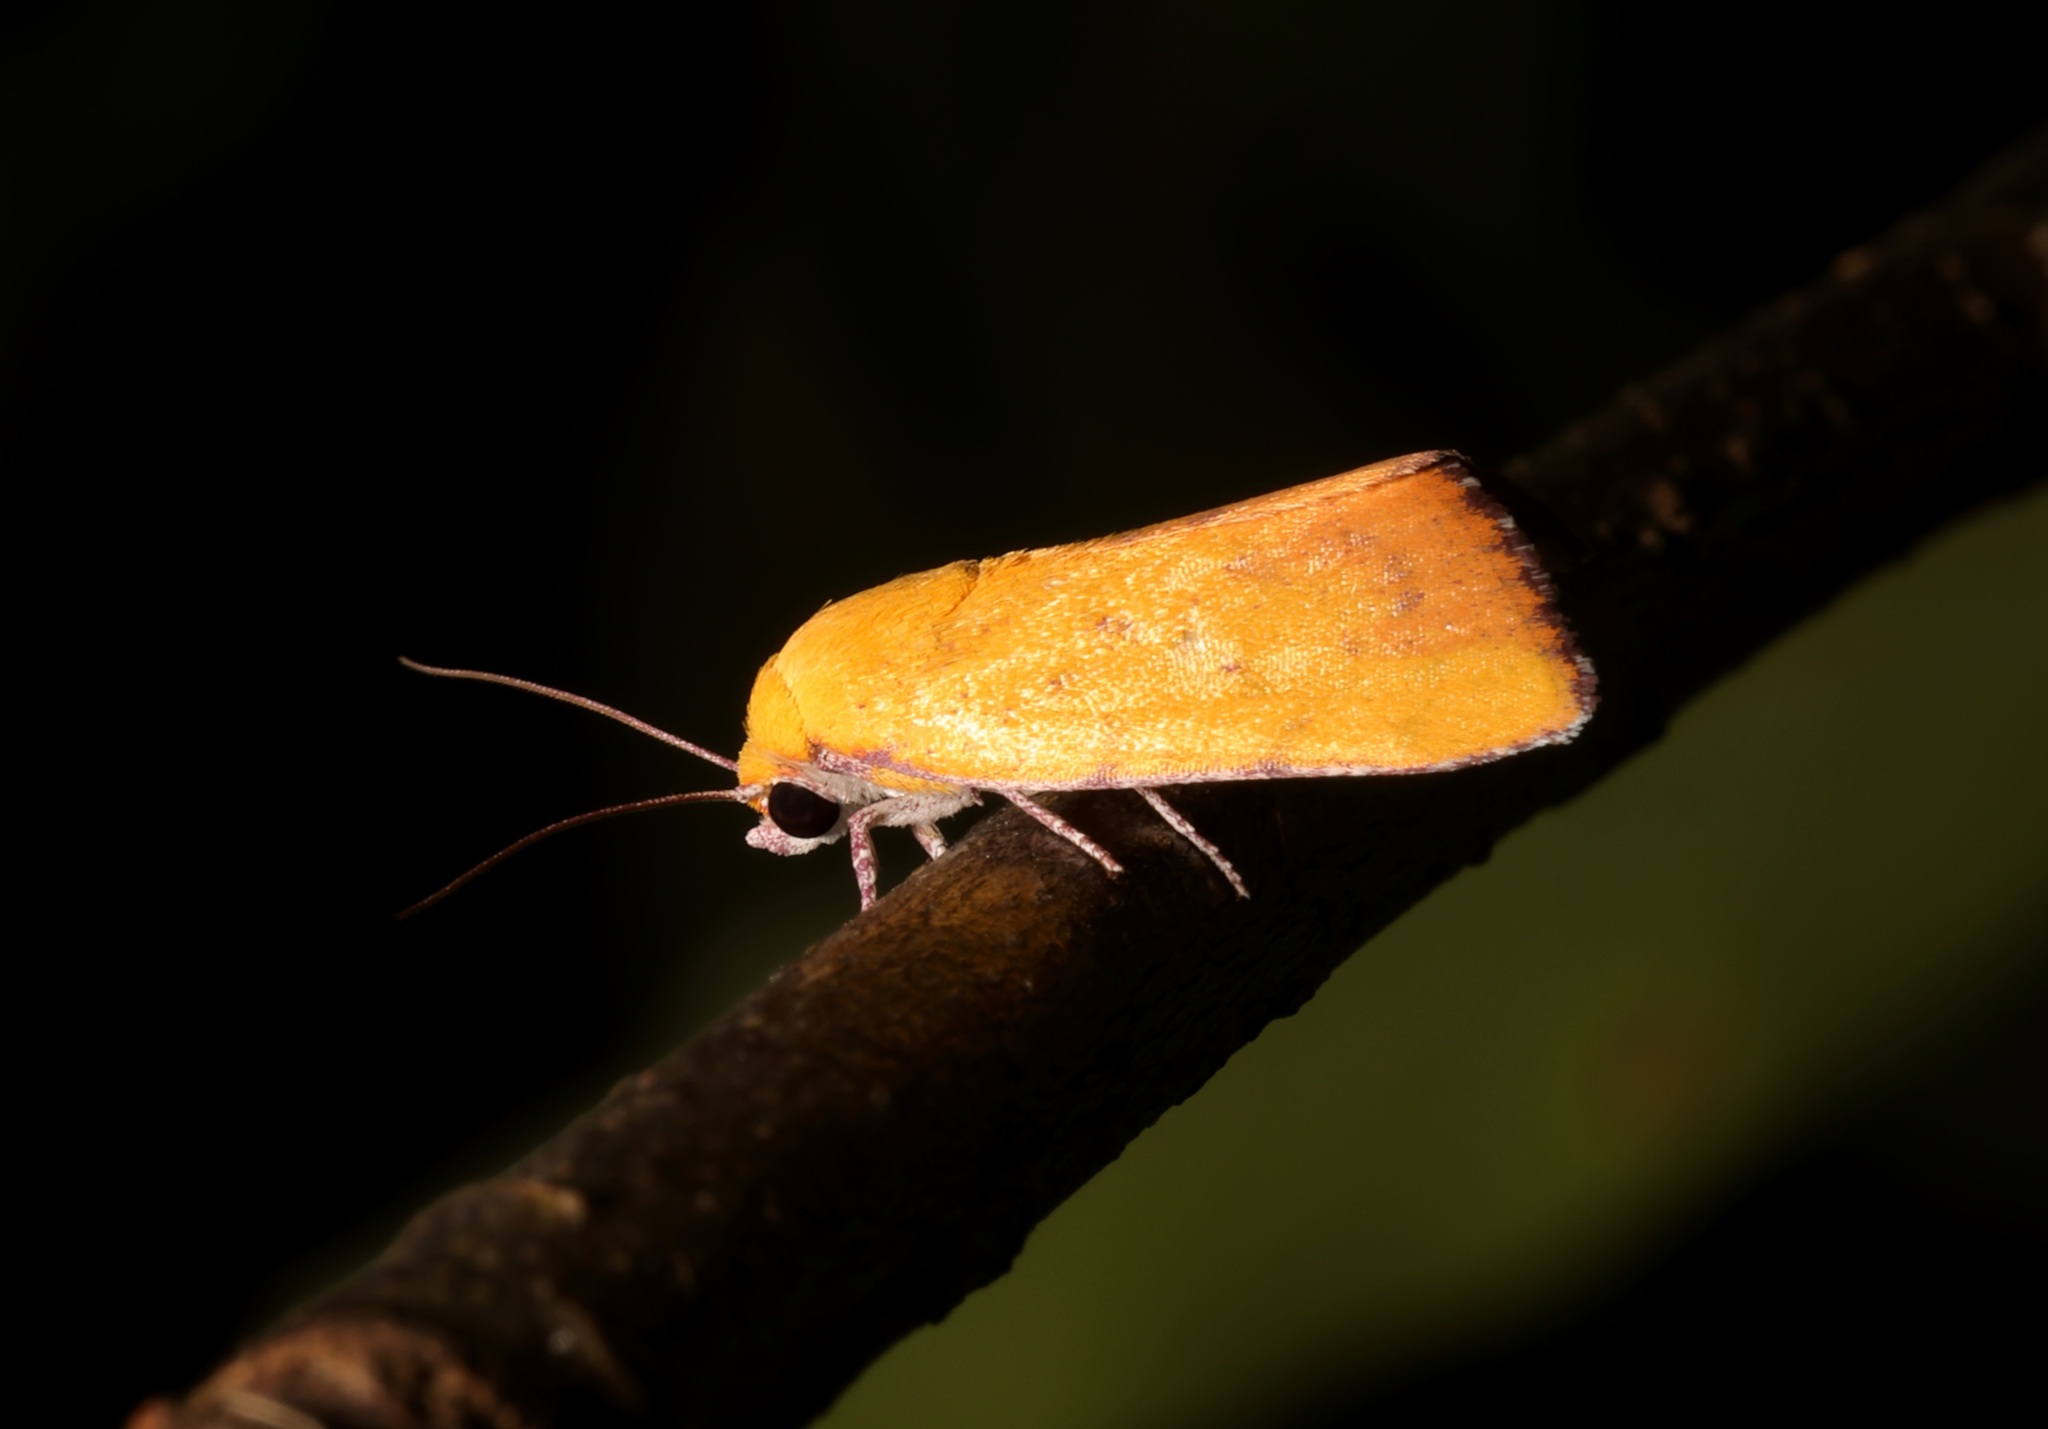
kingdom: Animalia
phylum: Arthropoda
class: Insecta
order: Lepidoptera
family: Nolidae
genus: Earias
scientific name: Earias luteolaria
